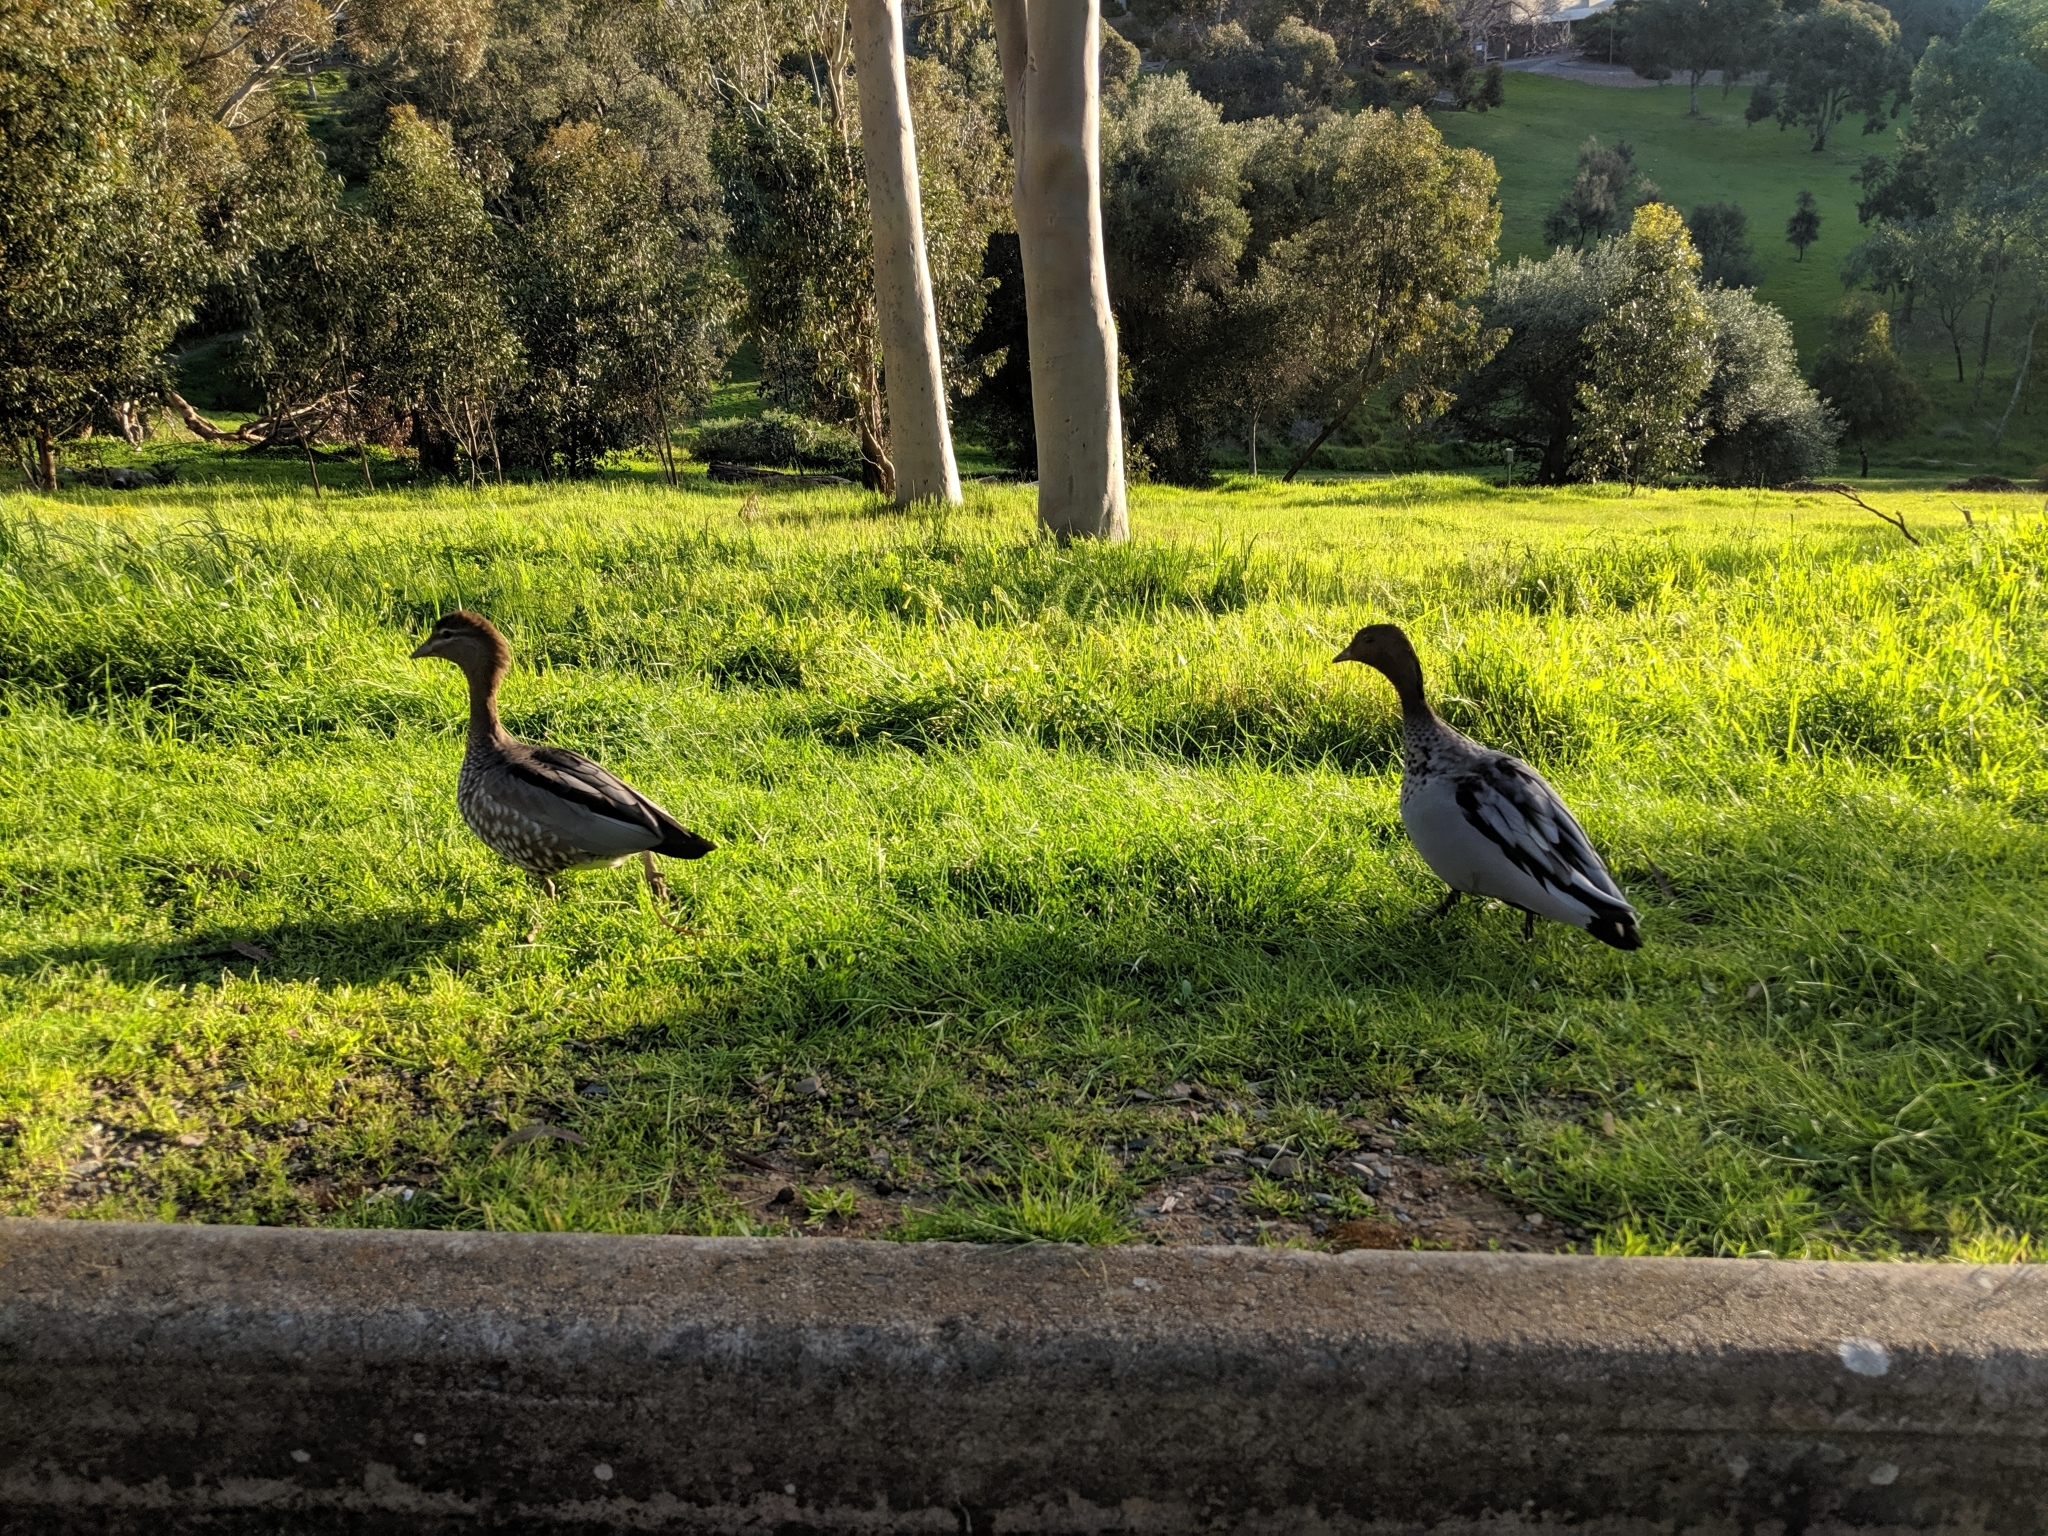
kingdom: Animalia
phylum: Chordata
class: Aves
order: Anseriformes
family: Anatidae
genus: Chenonetta
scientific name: Chenonetta jubata
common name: Maned duck
